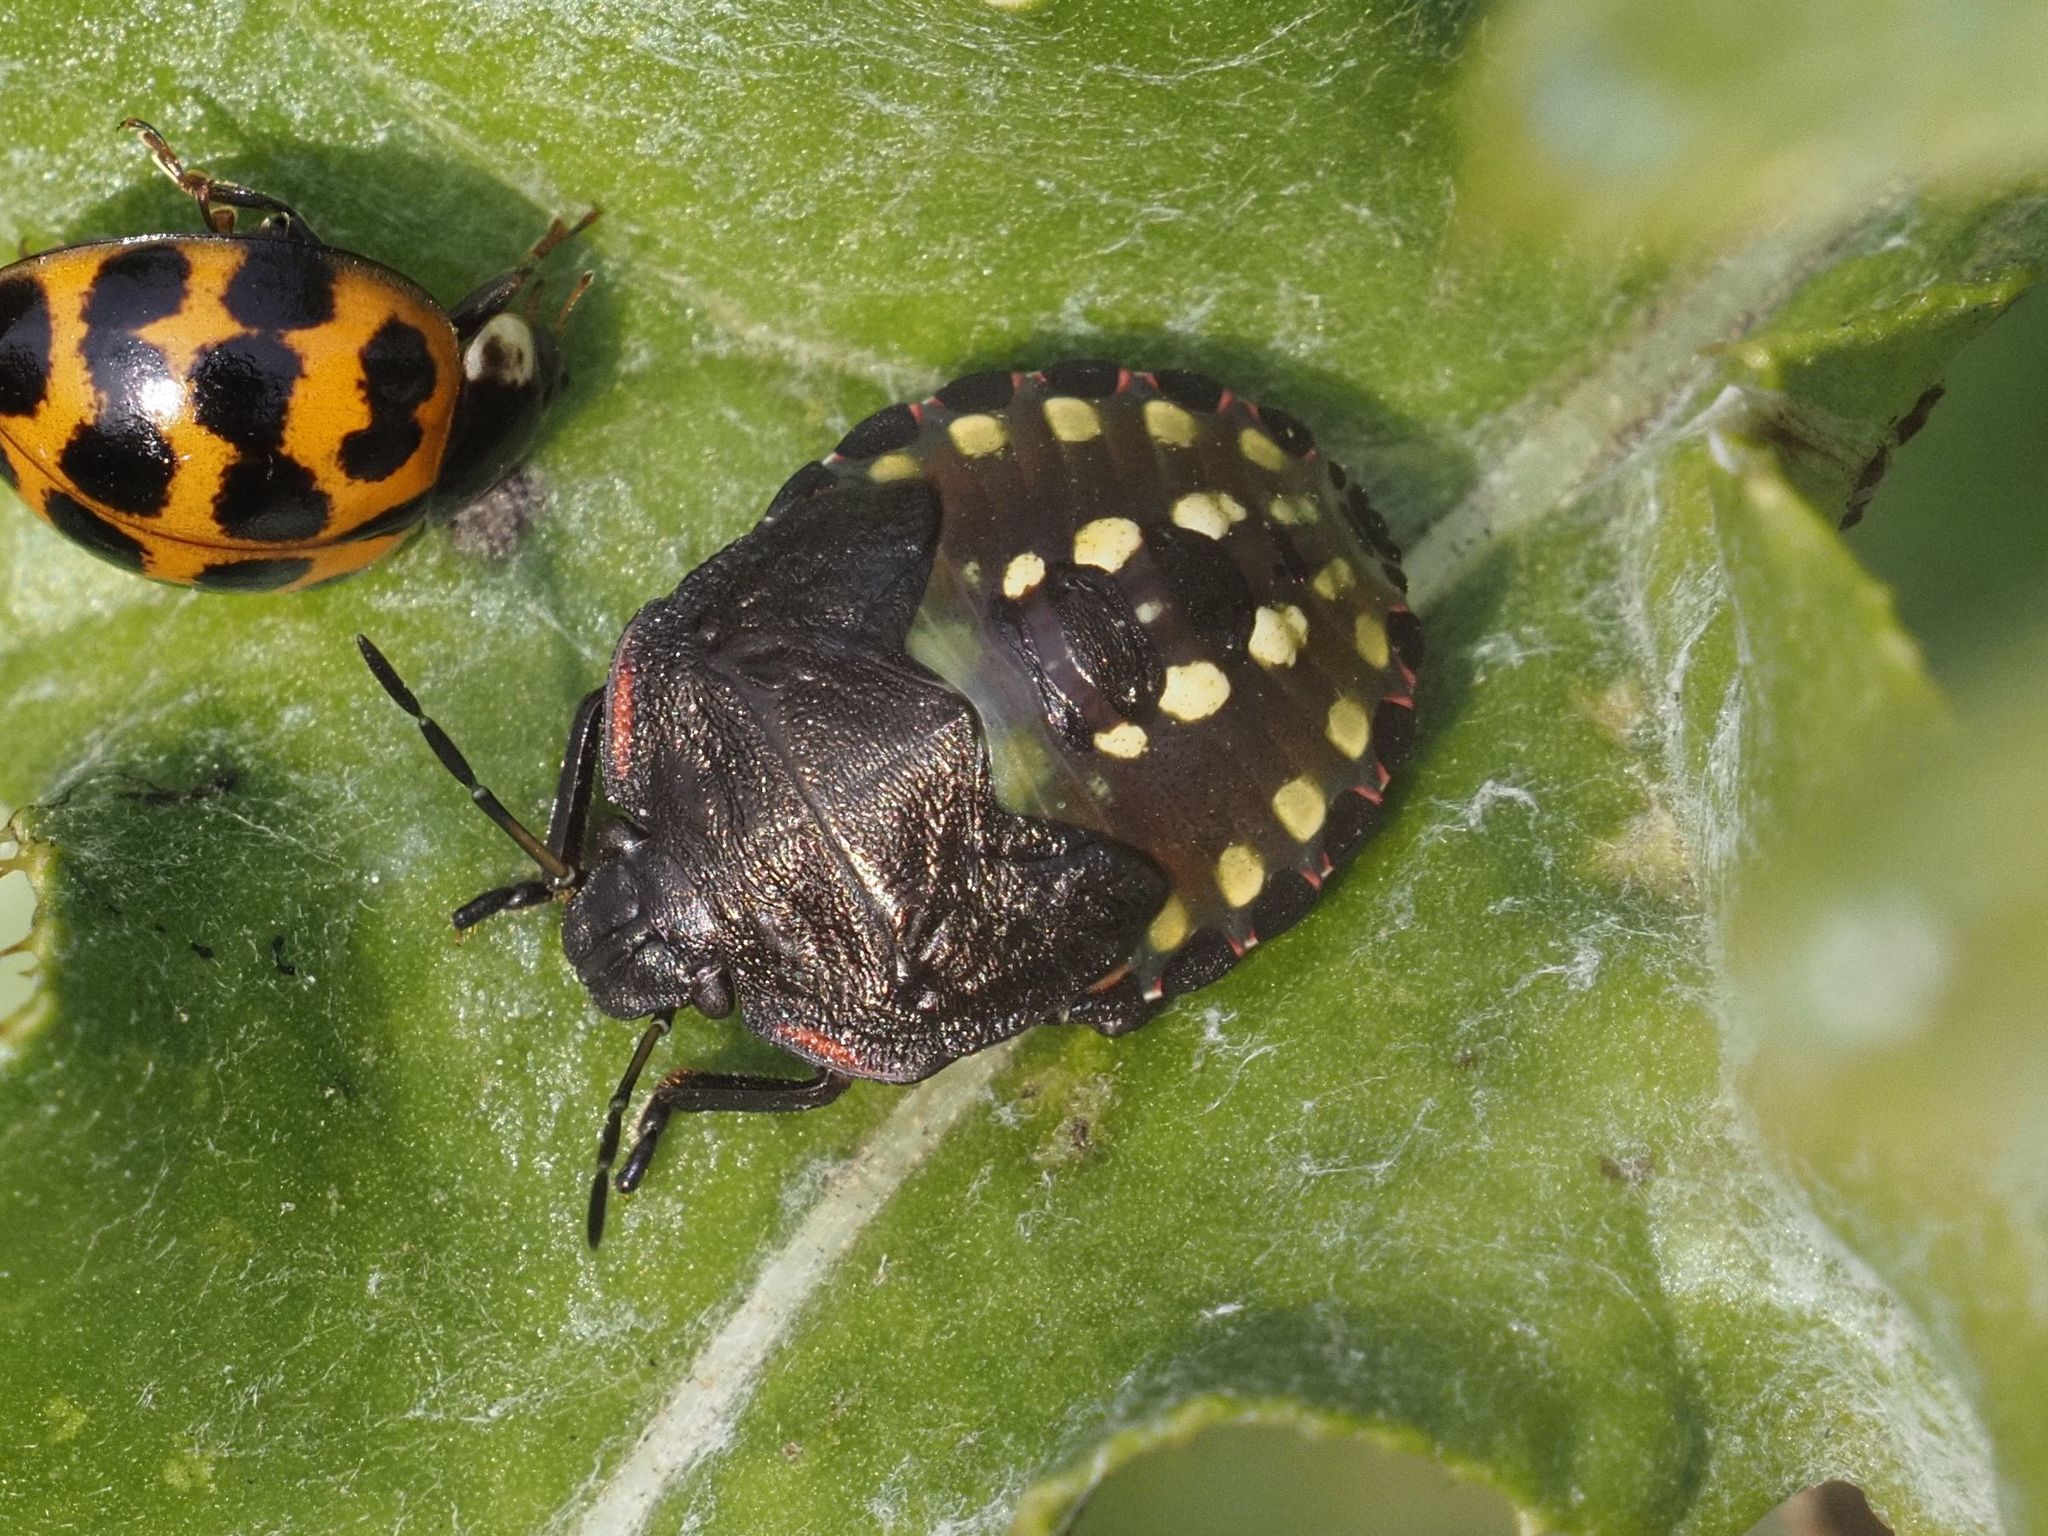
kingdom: Animalia
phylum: Arthropoda
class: Insecta
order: Hemiptera
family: Pentatomidae
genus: Nezara
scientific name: Nezara viridula
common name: Southern green stink bug
